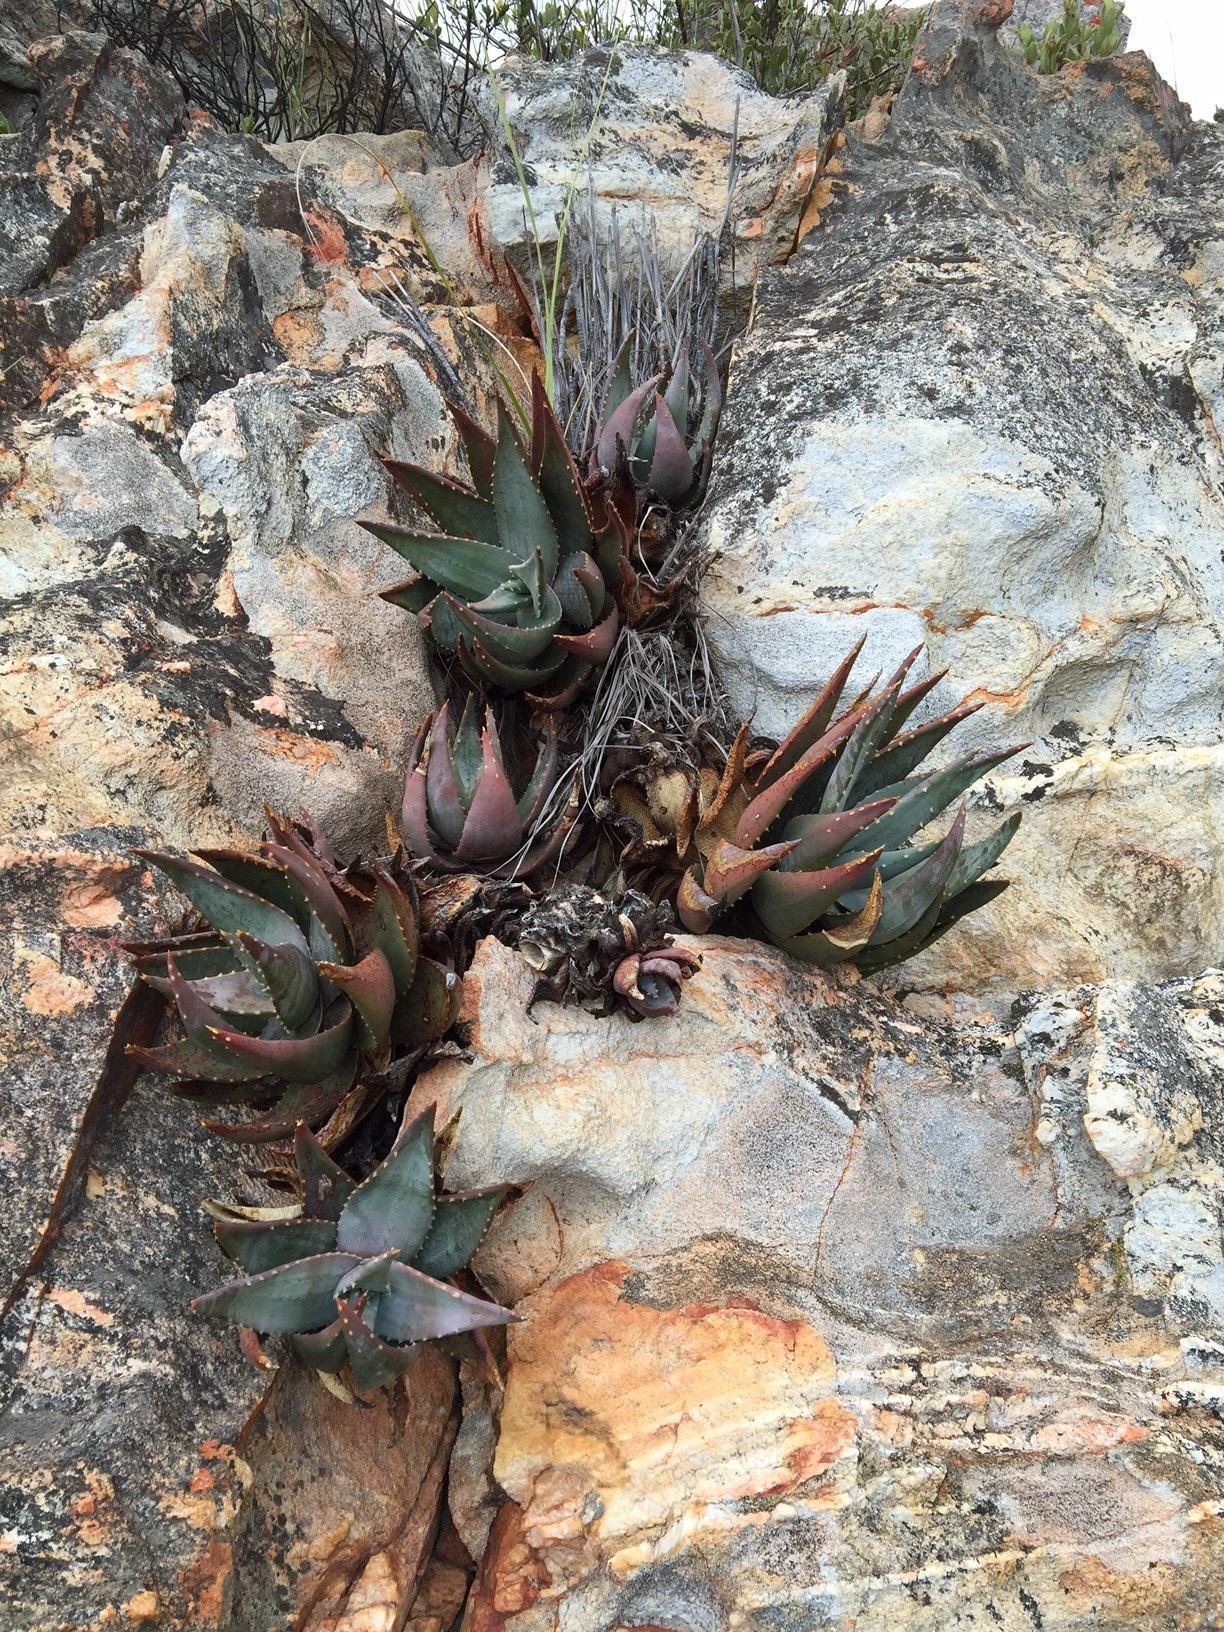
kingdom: Plantae
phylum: Tracheophyta
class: Liliopsida
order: Asparagales
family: Asphodelaceae
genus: Aloe
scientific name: Aloe comptonii
